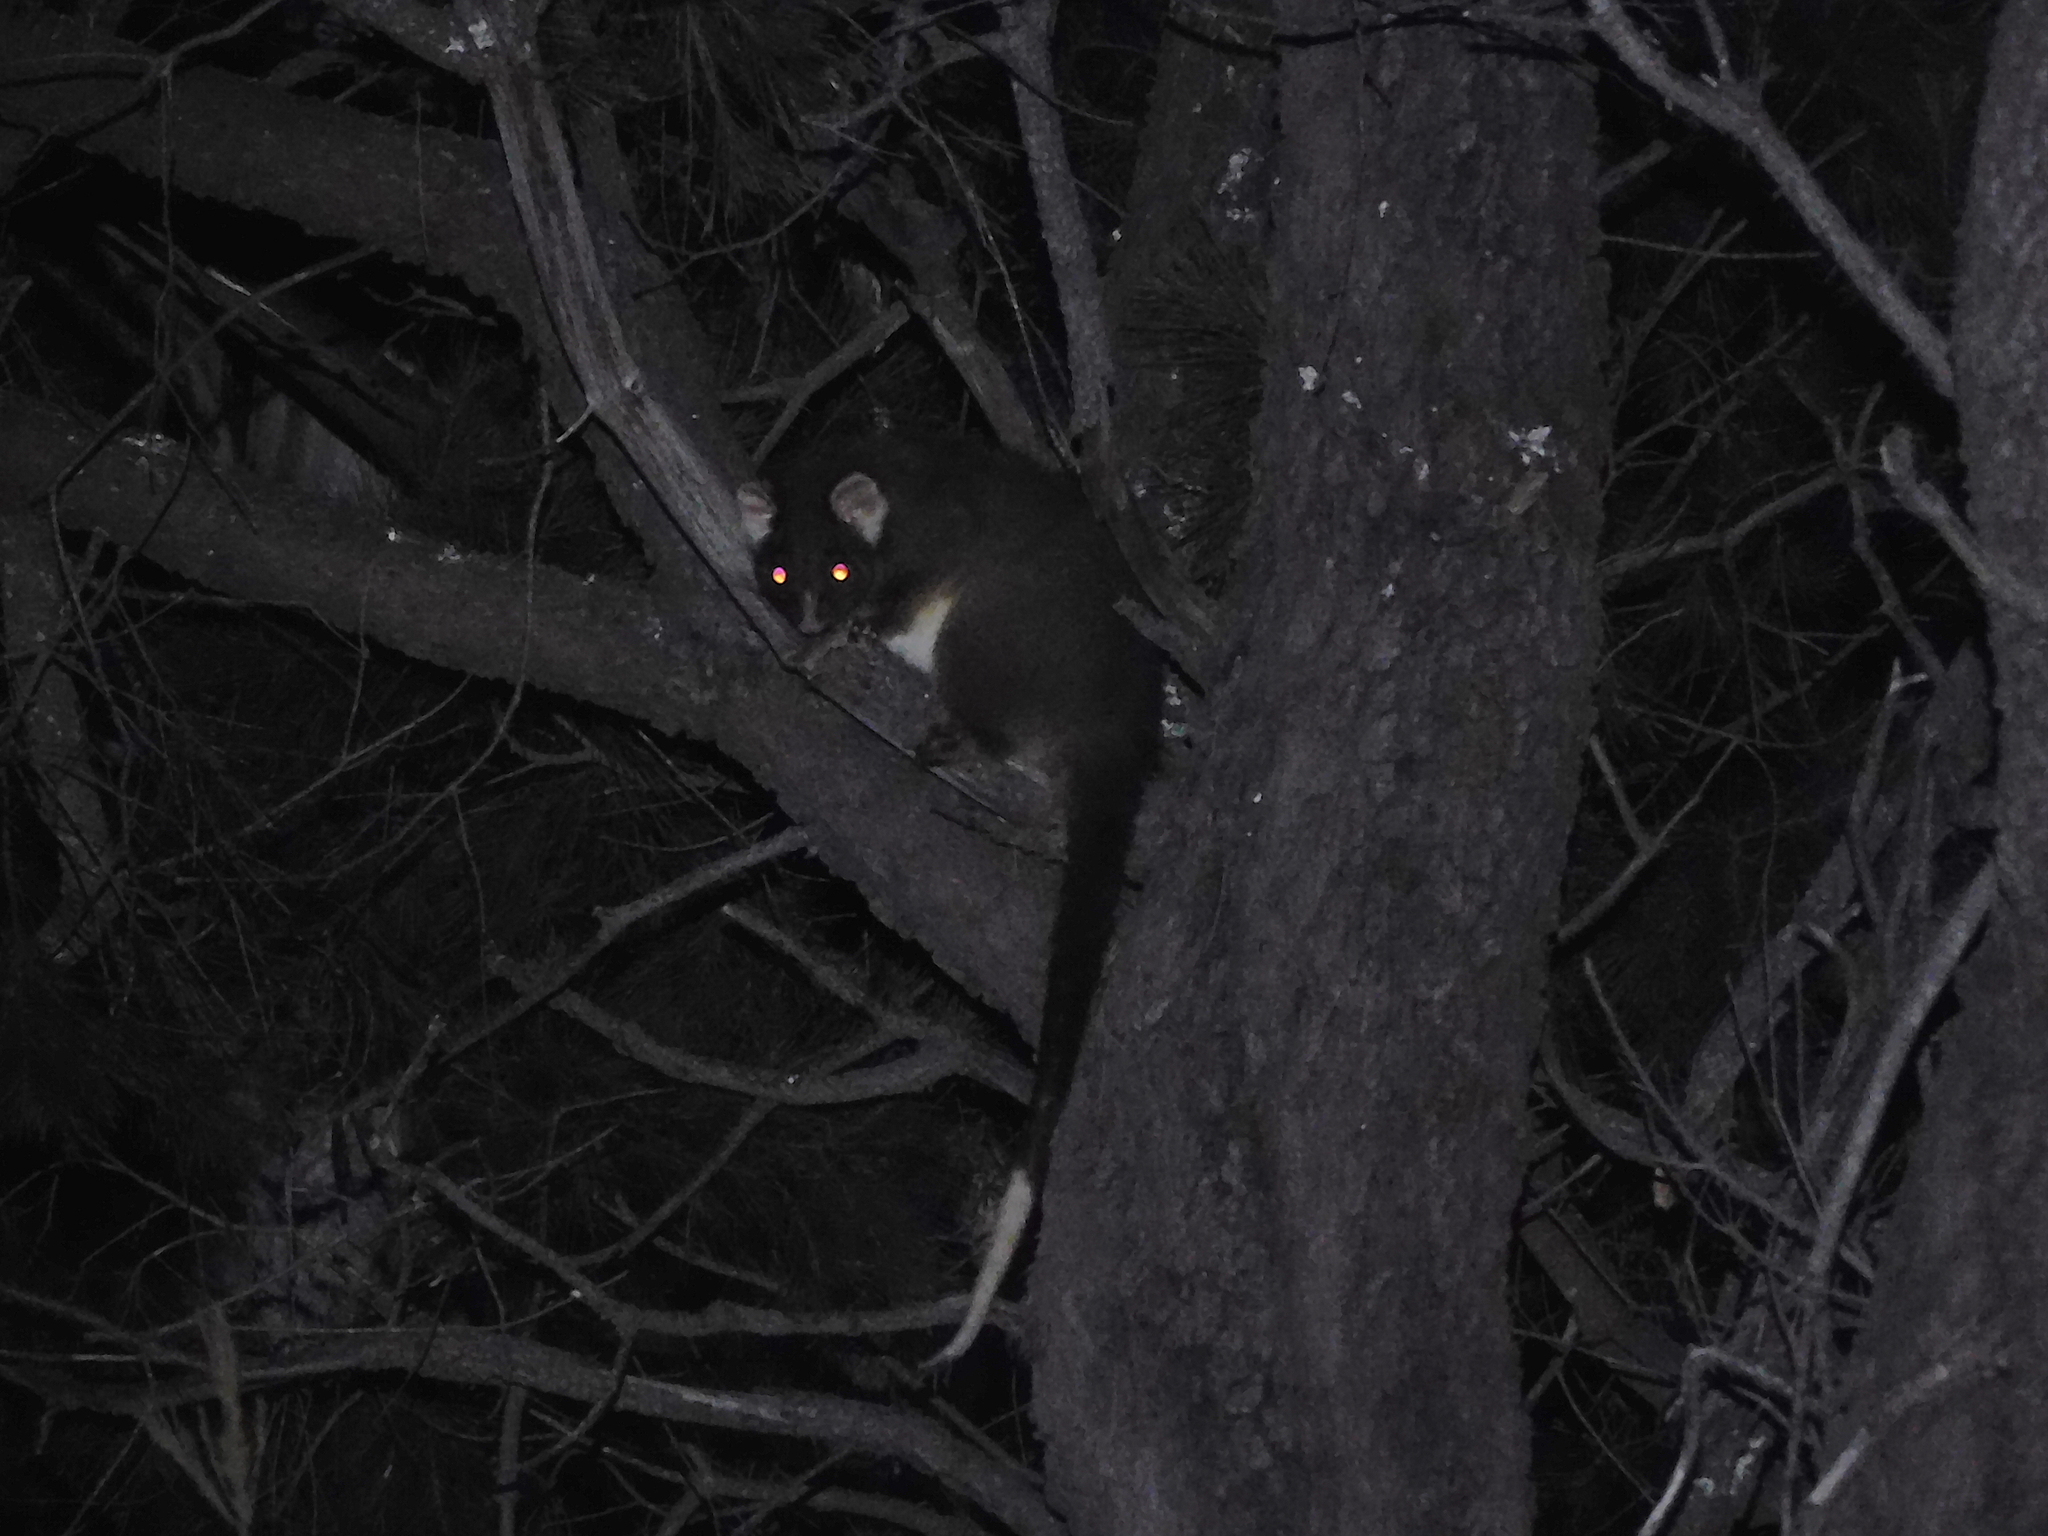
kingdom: Animalia
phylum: Chordata
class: Mammalia
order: Diprotodontia
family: Pseudocheiridae
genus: Pseudocheirus
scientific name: Pseudocheirus peregrinus
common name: Common ringtail possum
